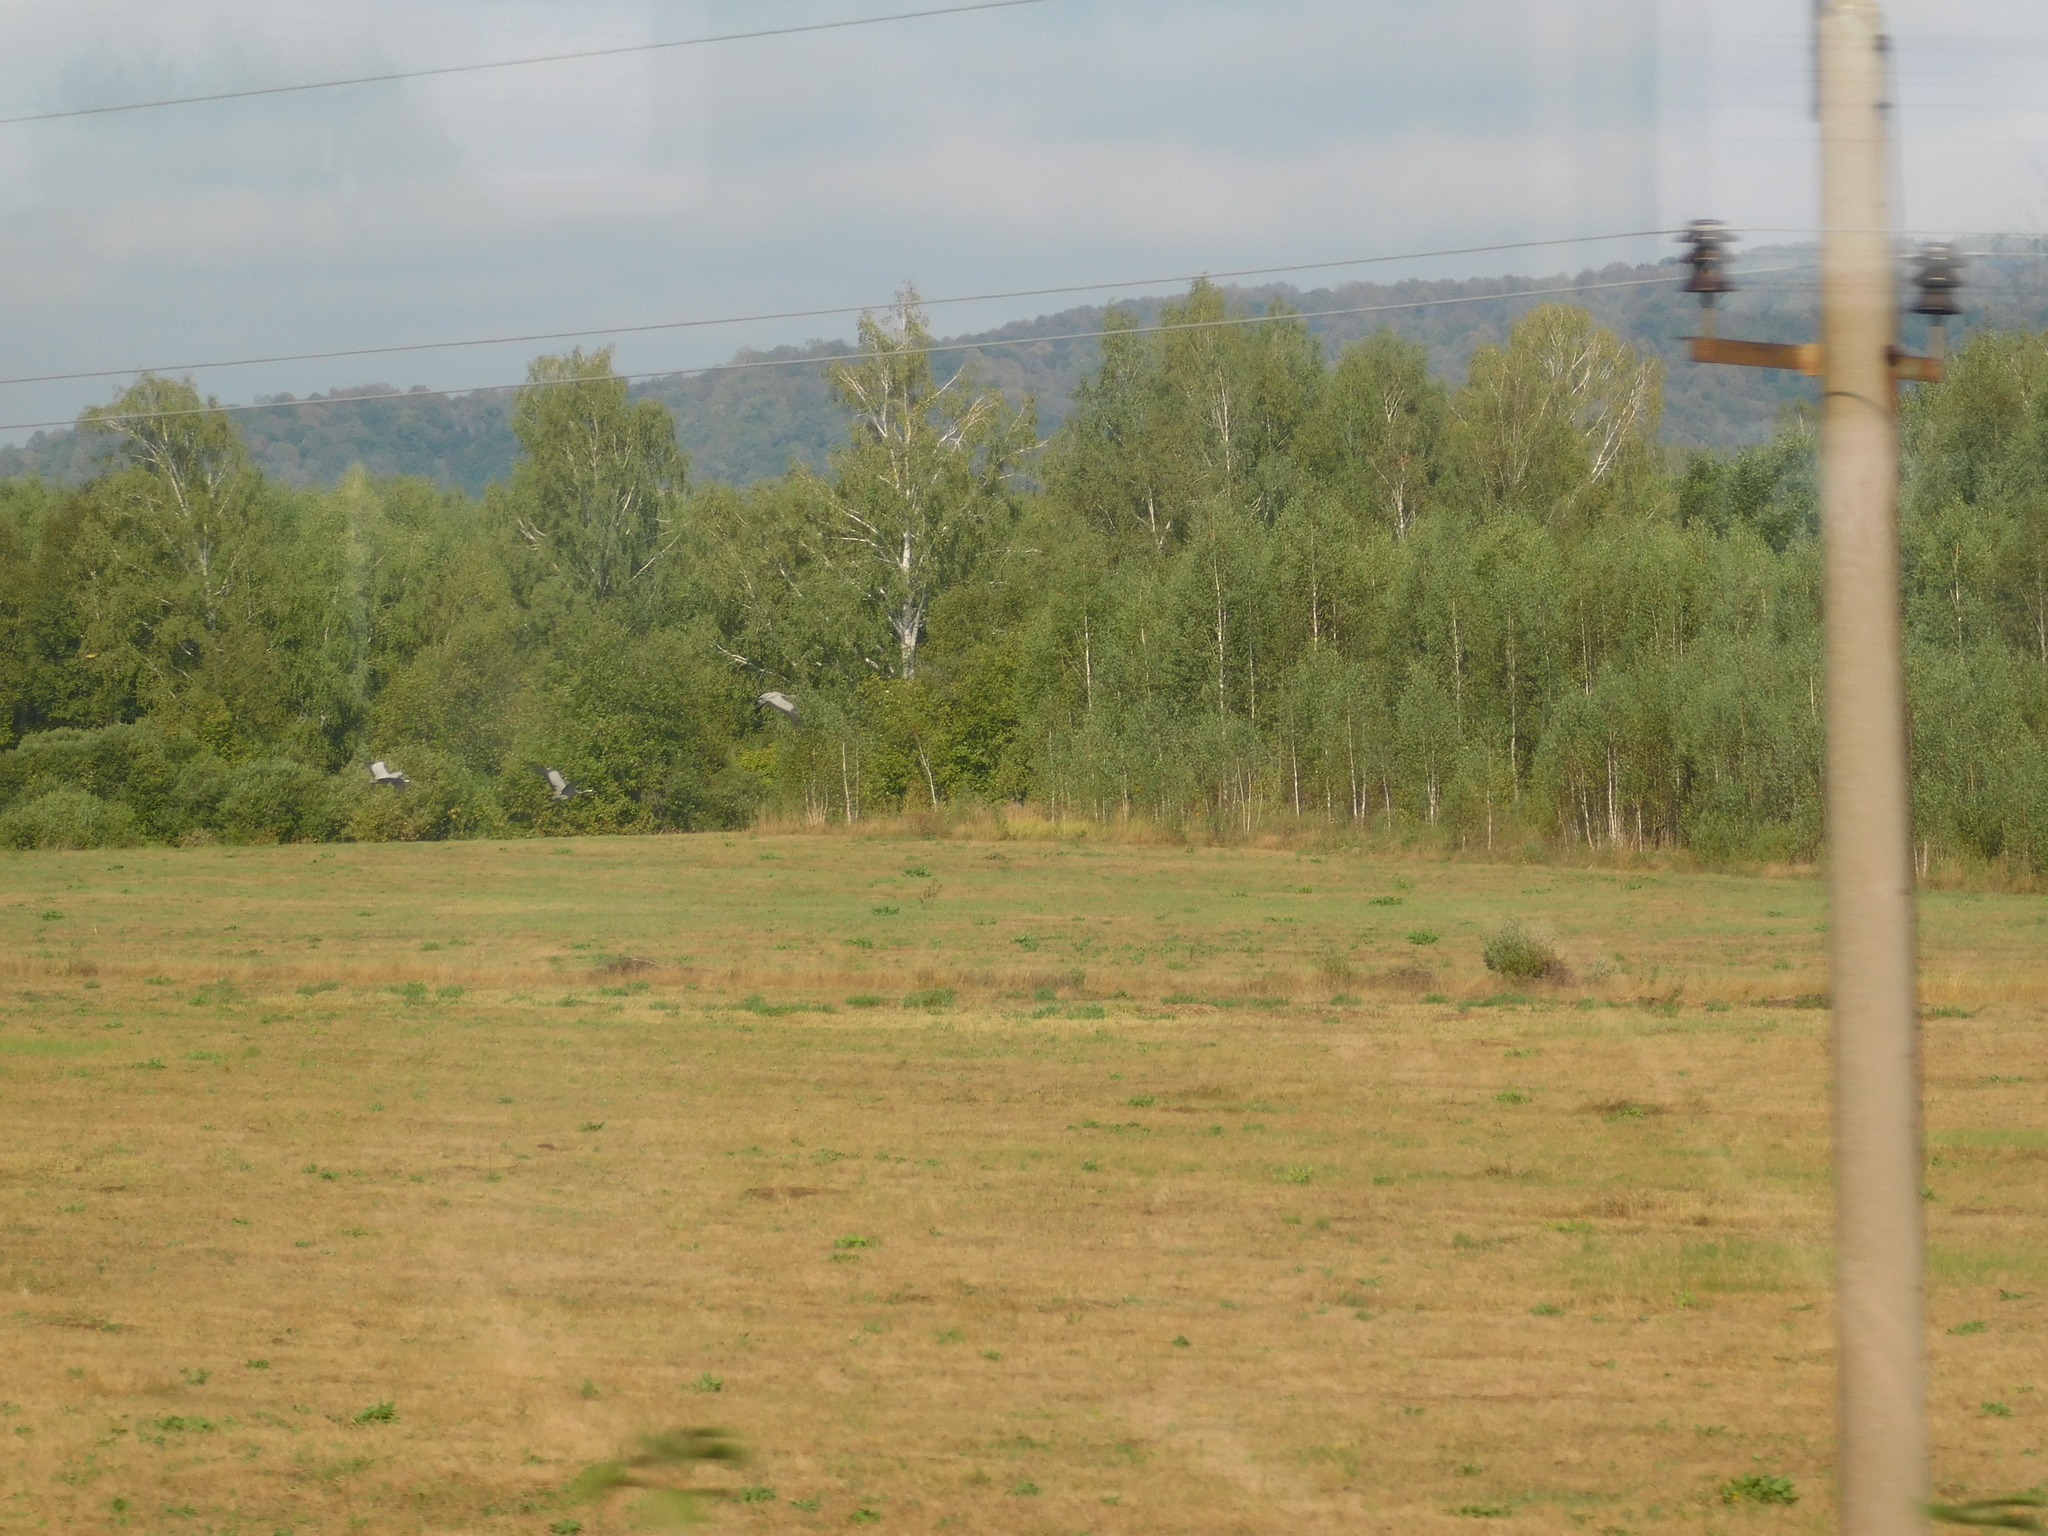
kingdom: Animalia
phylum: Chordata
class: Aves
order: Gruiformes
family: Gruidae
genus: Grus
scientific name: Grus grus
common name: Common crane
